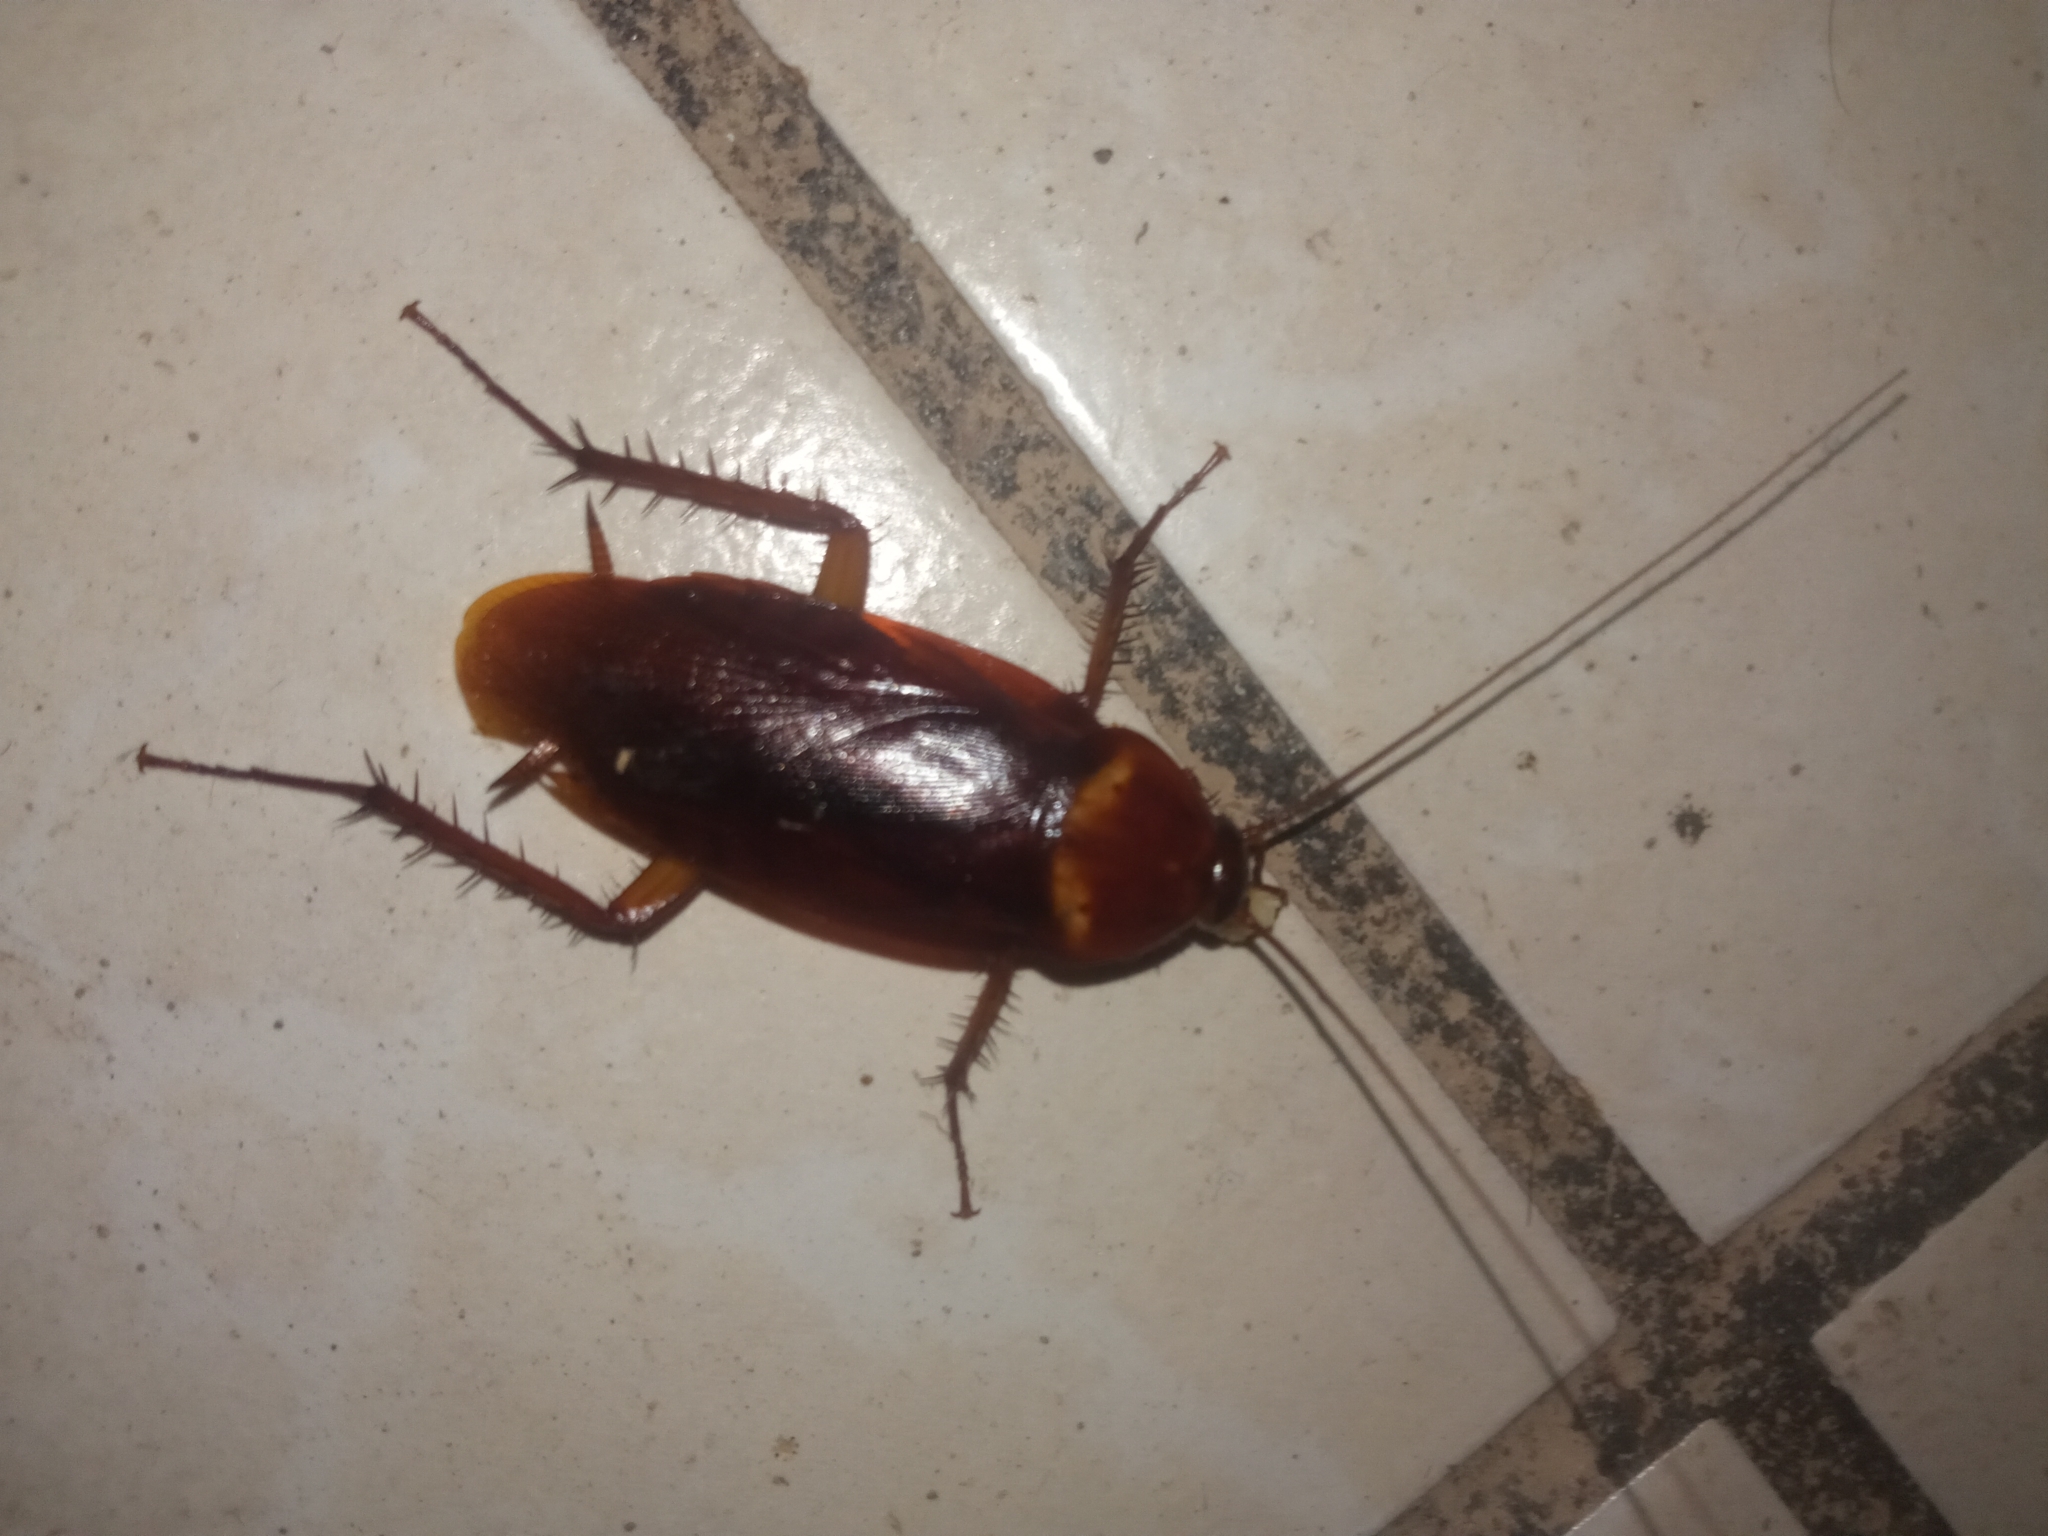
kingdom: Animalia
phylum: Arthropoda
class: Insecta
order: Blattodea
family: Blattidae
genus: Periplaneta
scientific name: Periplaneta americana
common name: American cockroach
